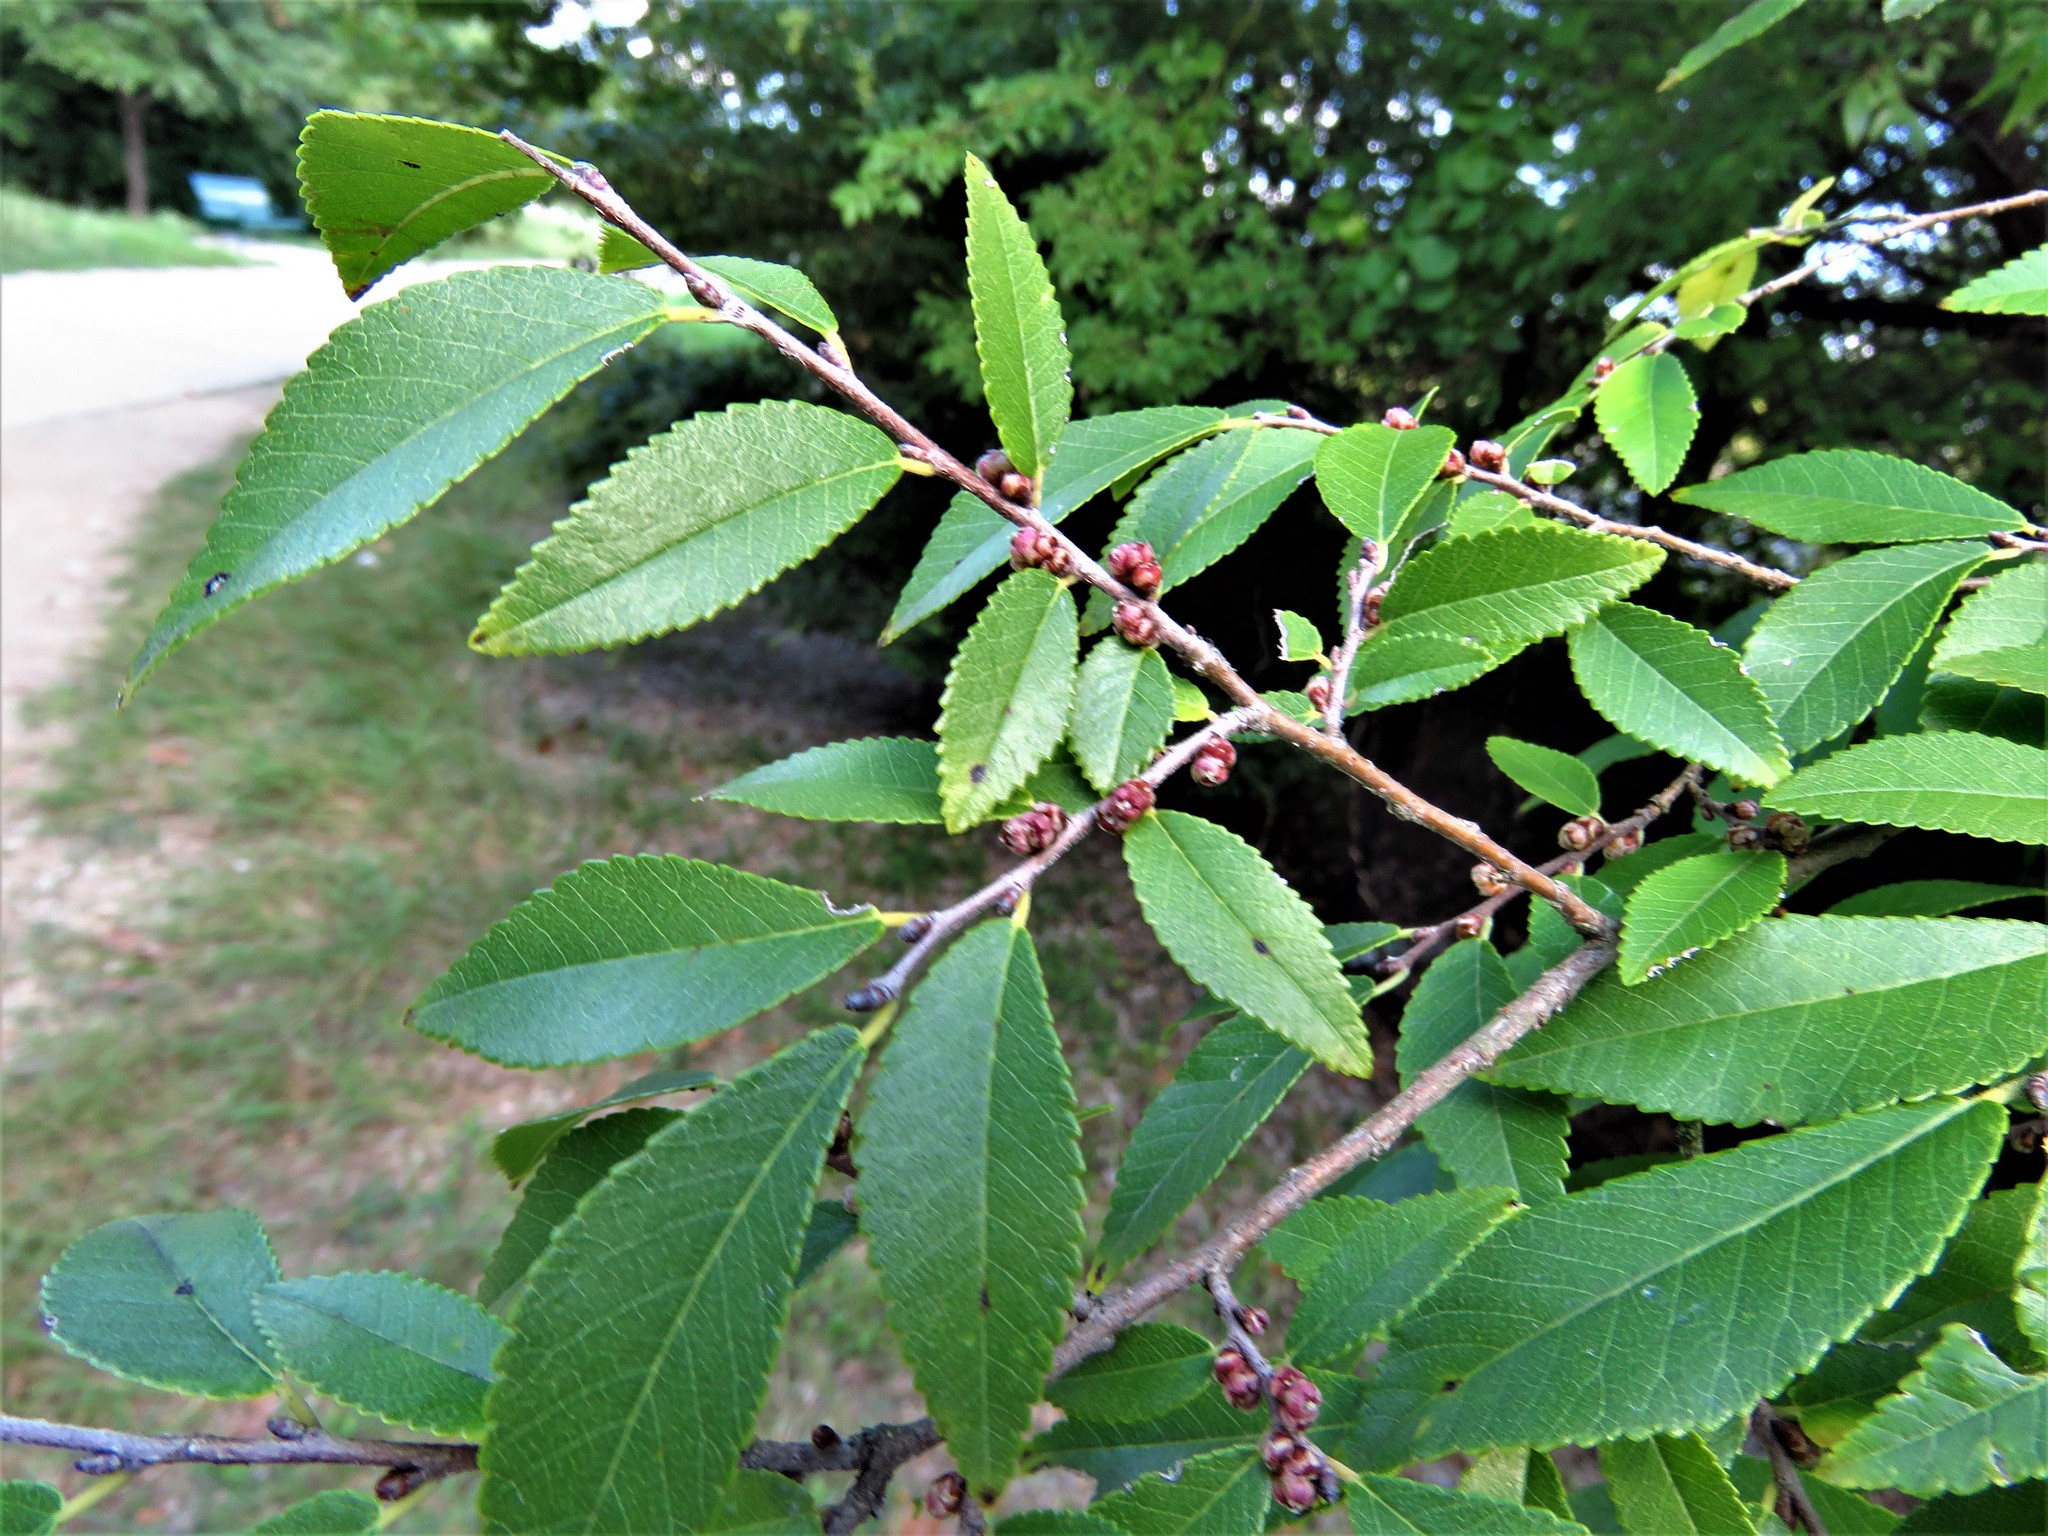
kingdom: Plantae
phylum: Tracheophyta
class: Magnoliopsida
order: Rosales
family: Ulmaceae
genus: Ulmus
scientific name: Ulmus parvifolia
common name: Chinese elm
